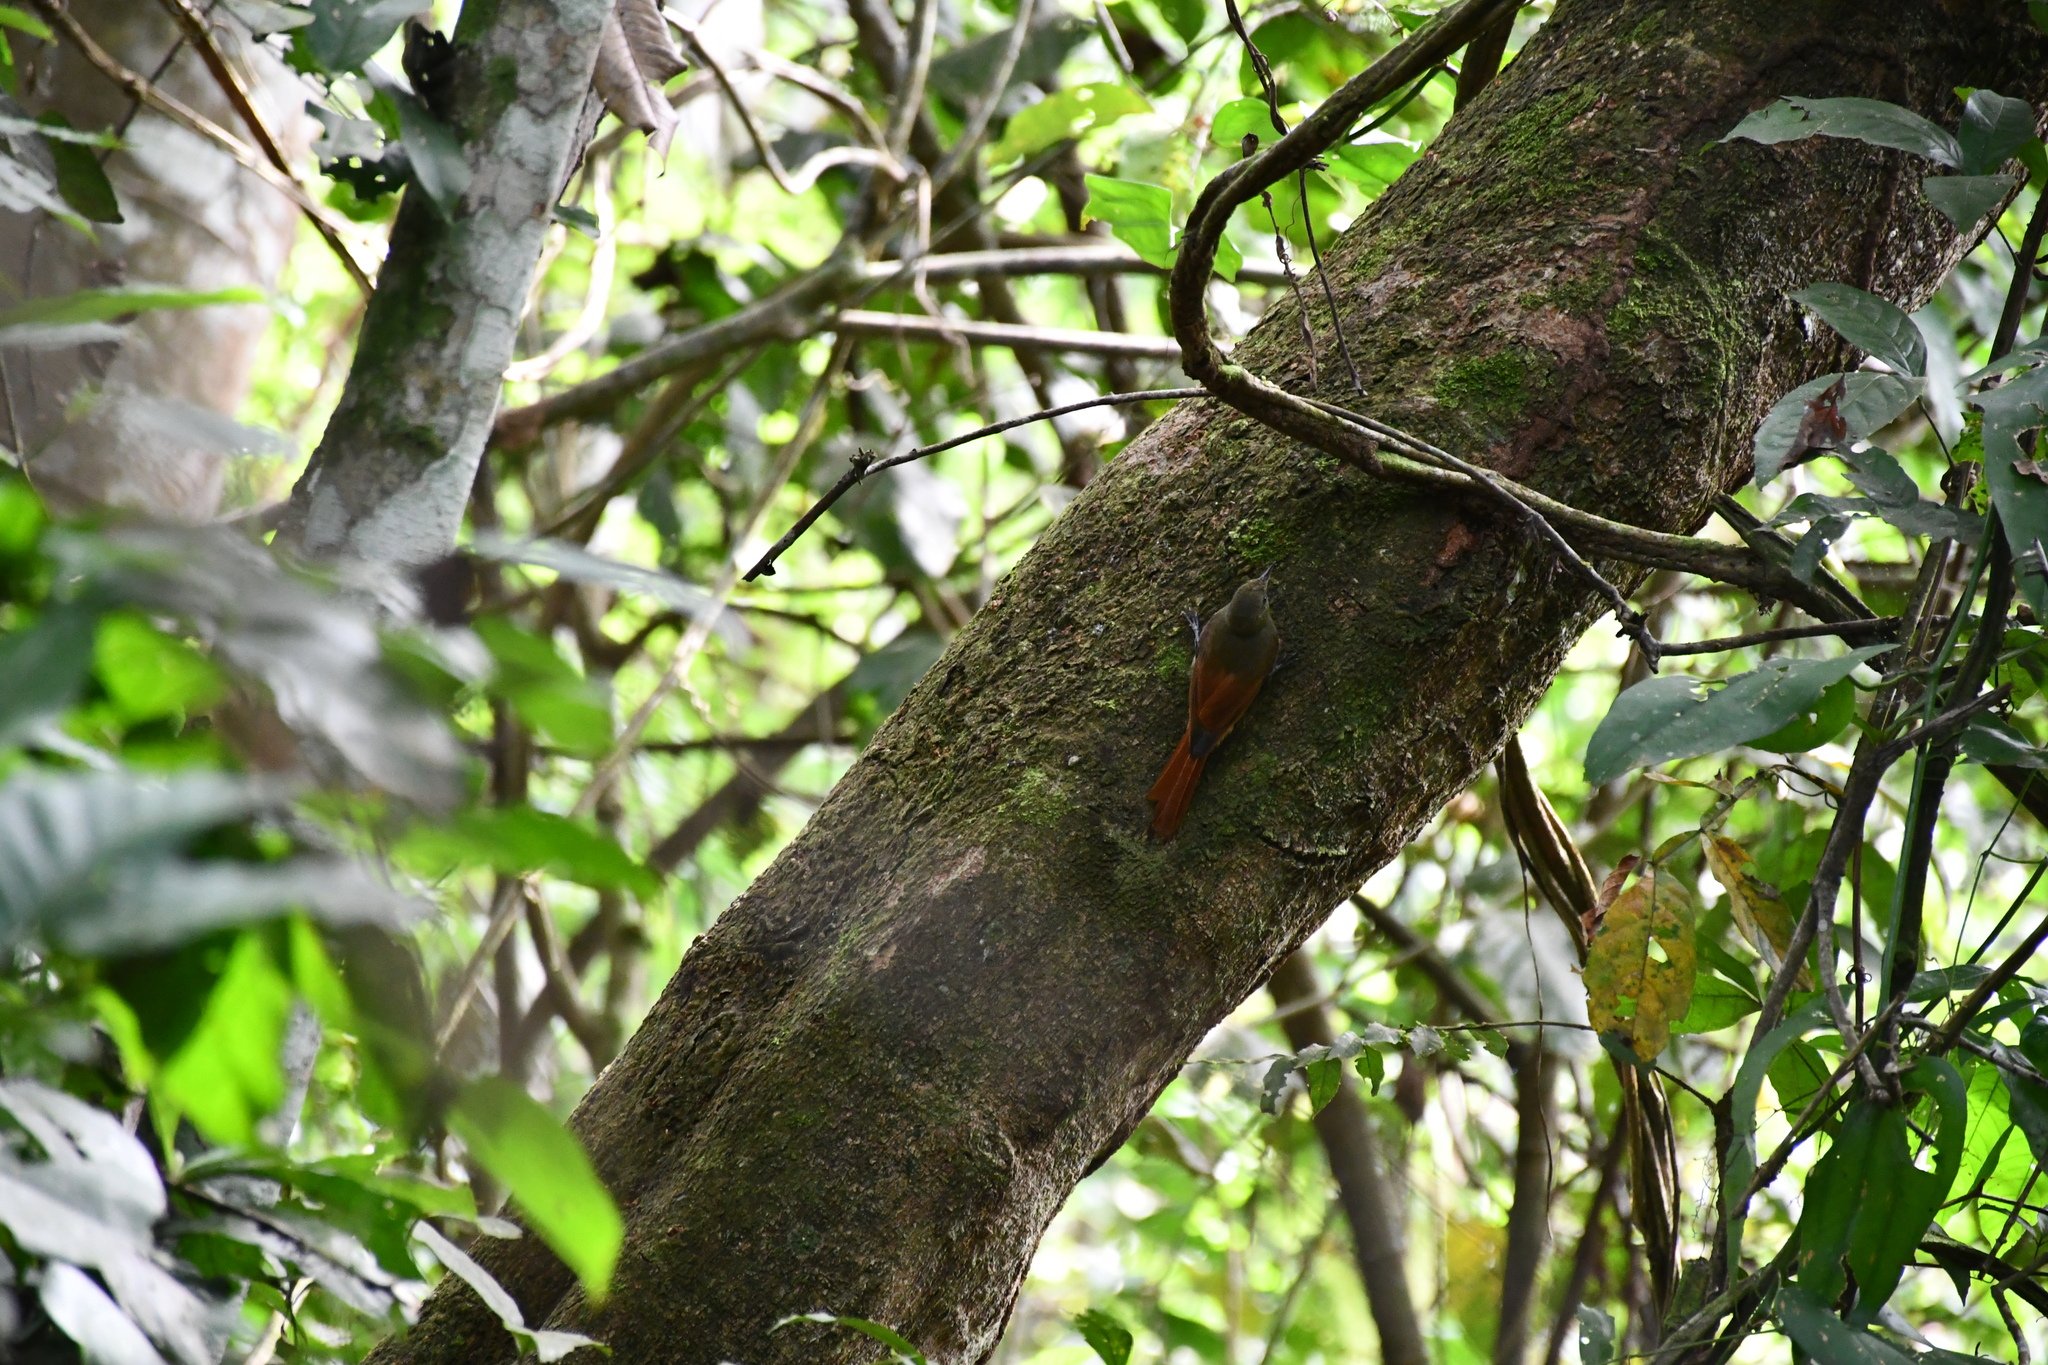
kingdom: Animalia
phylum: Chordata
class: Aves
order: Passeriformes
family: Furnariidae
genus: Sittasomus
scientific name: Sittasomus griseicapillus
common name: Olivaceous woodcreeper
